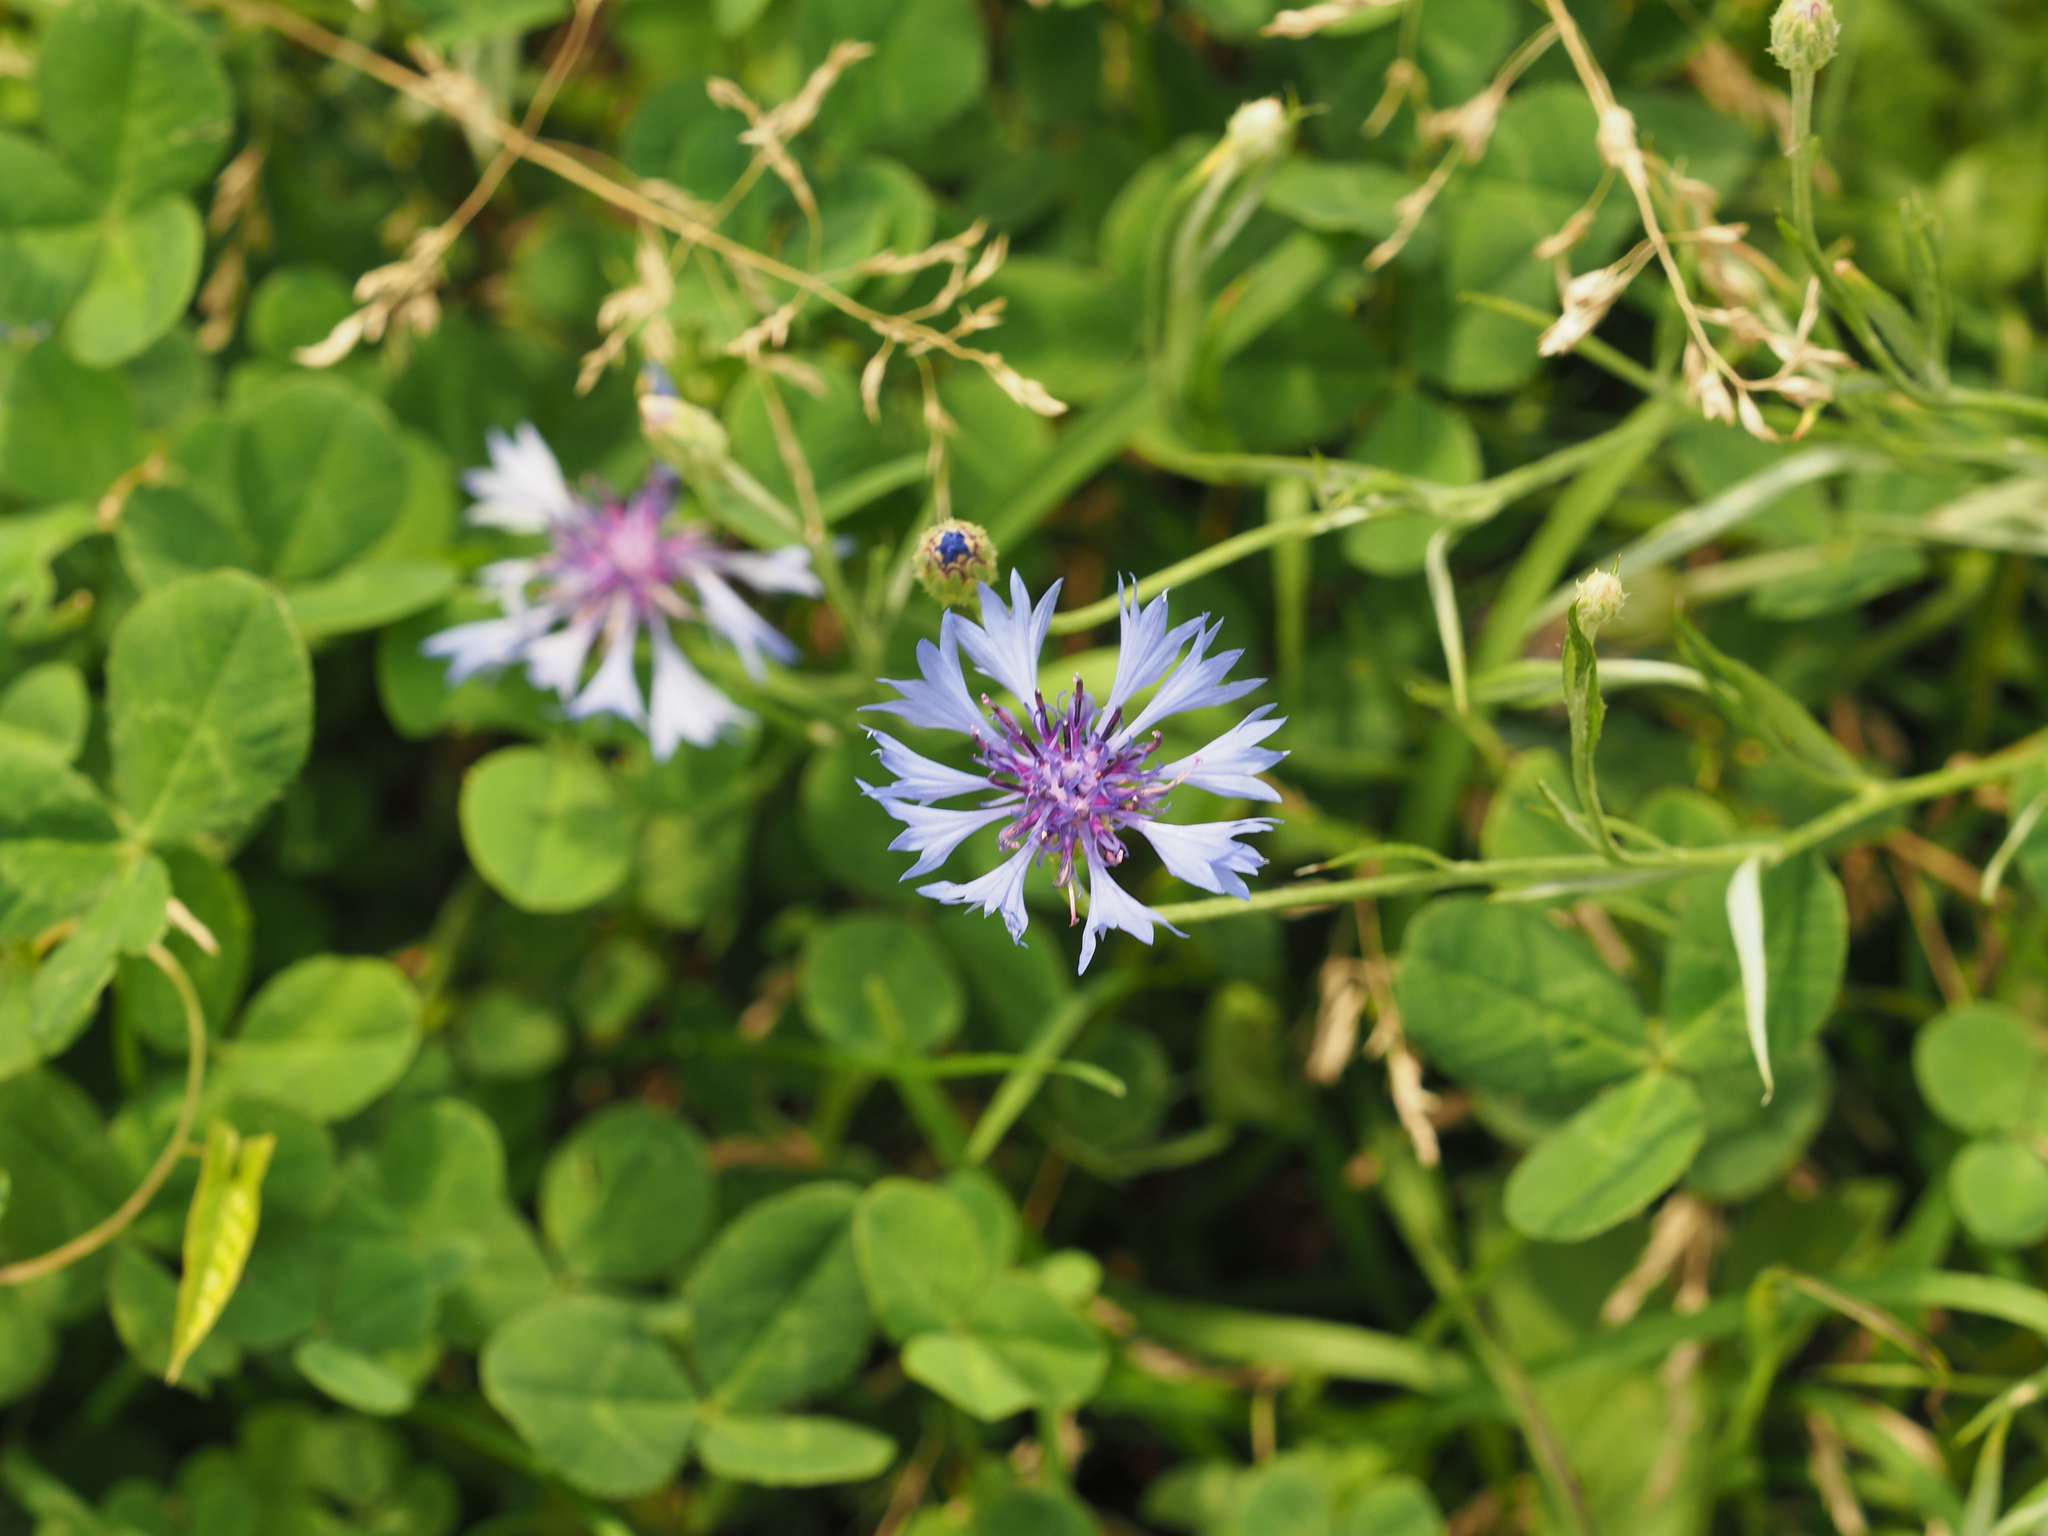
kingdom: Plantae
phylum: Tracheophyta
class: Magnoliopsida
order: Asterales
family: Asteraceae
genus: Centaurea
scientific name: Centaurea cyanus
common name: Cornflower
